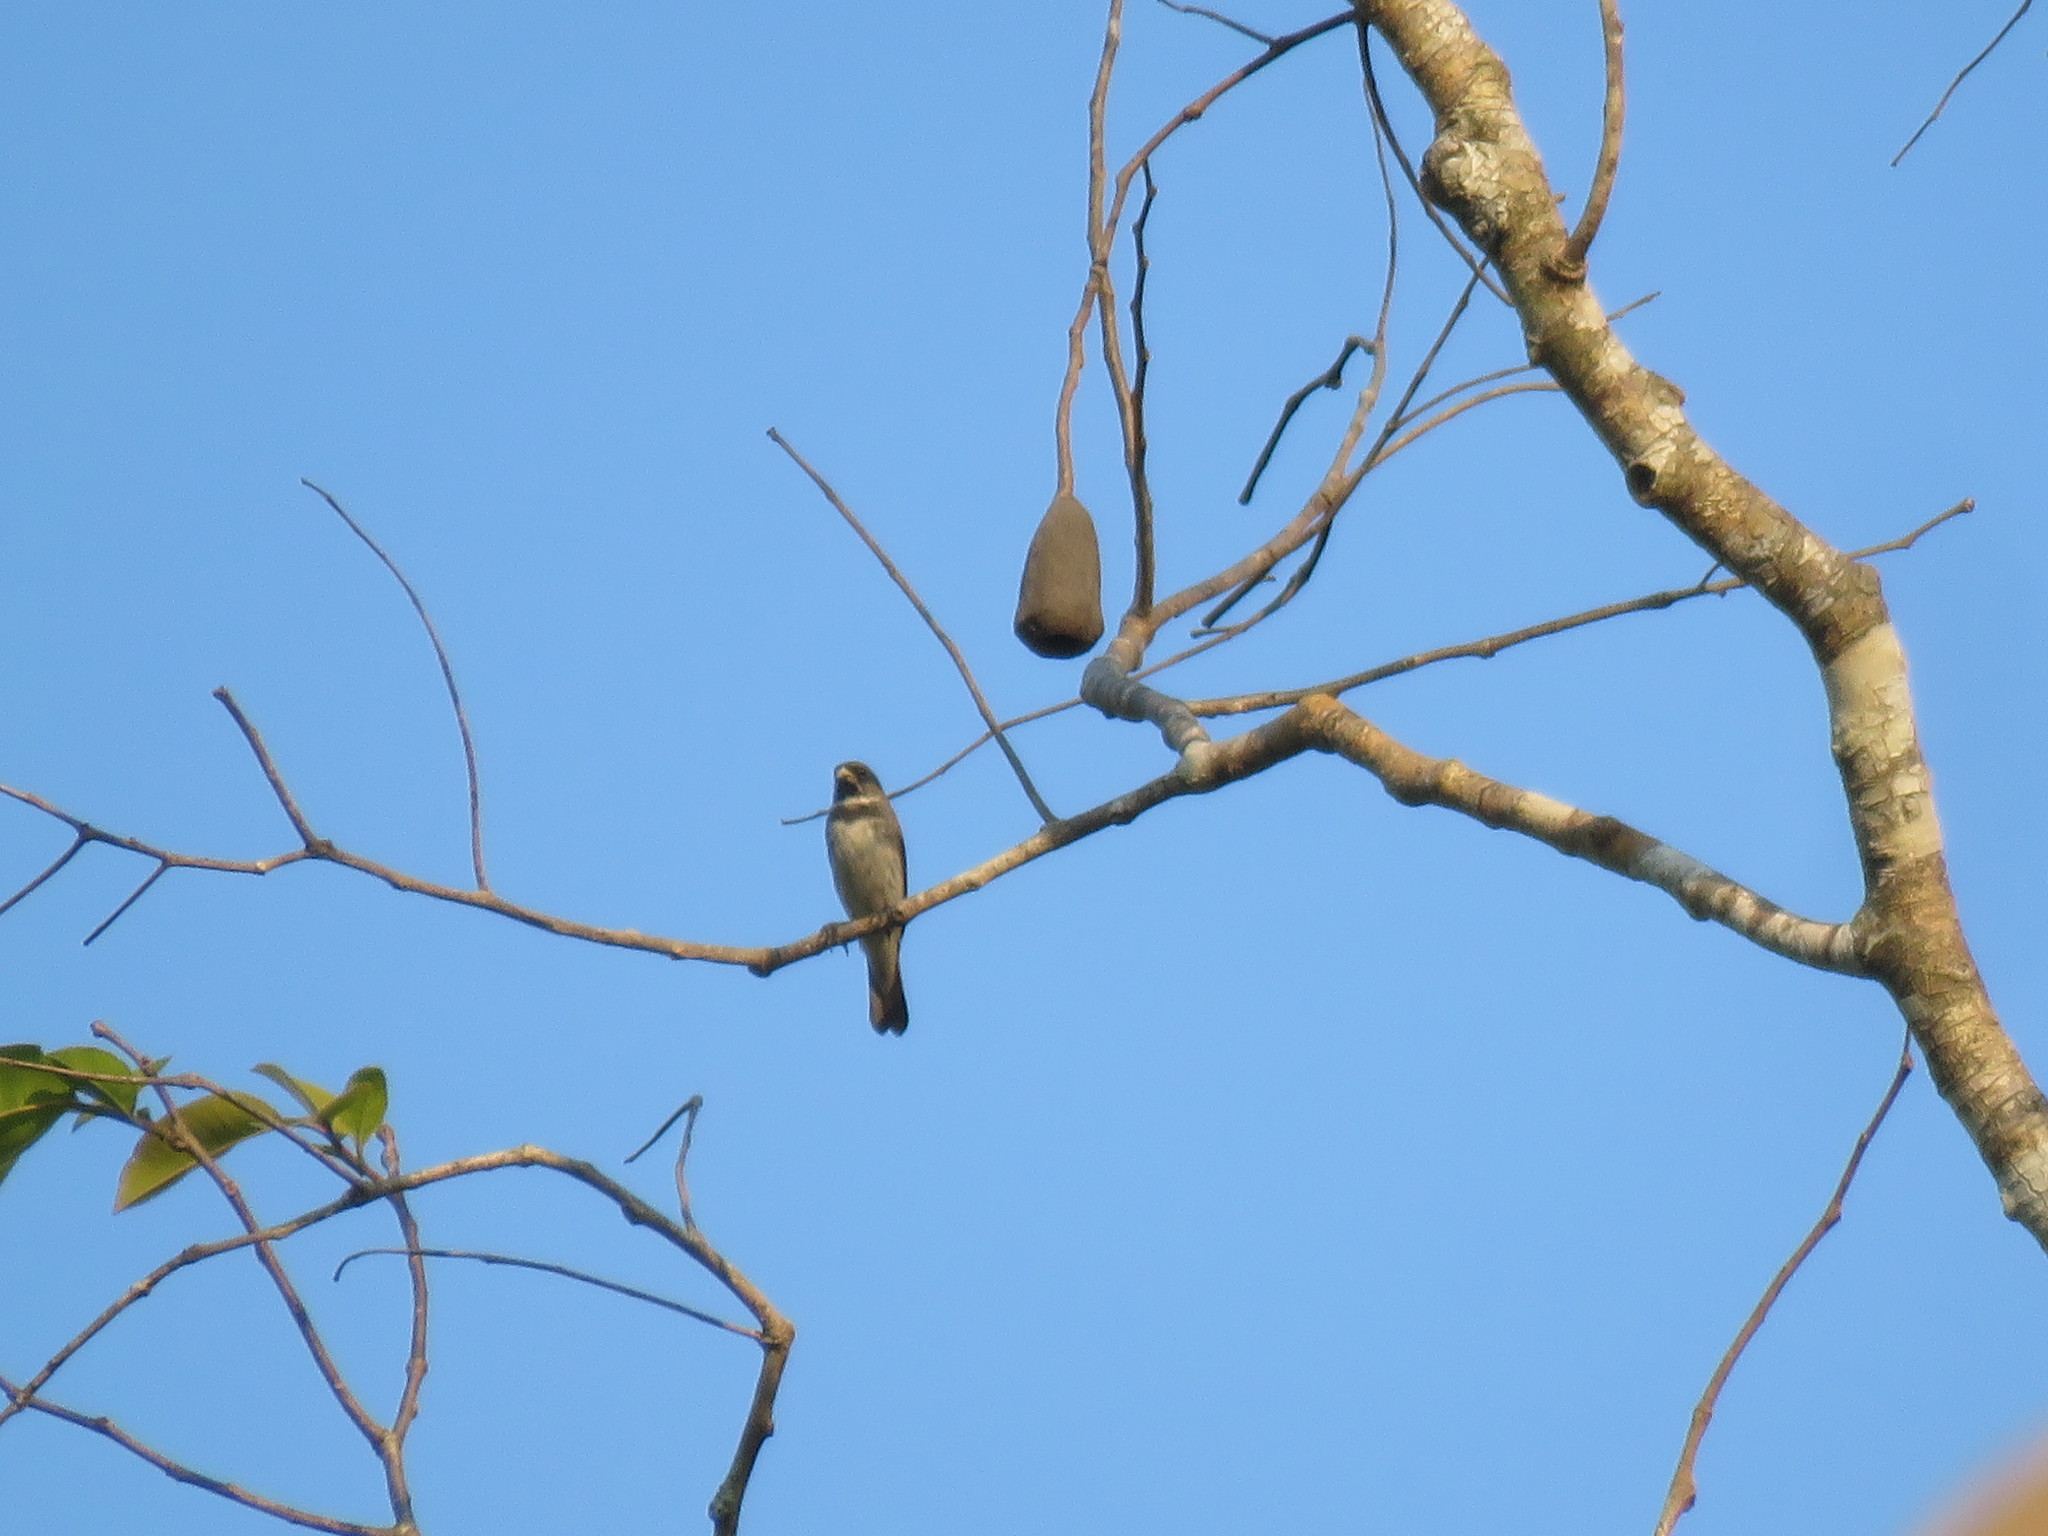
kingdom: Animalia
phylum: Chordata
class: Aves
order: Passeriformes
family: Thraupidae
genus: Sporophila
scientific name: Sporophila caerulescens
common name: Double-collared seedeater
